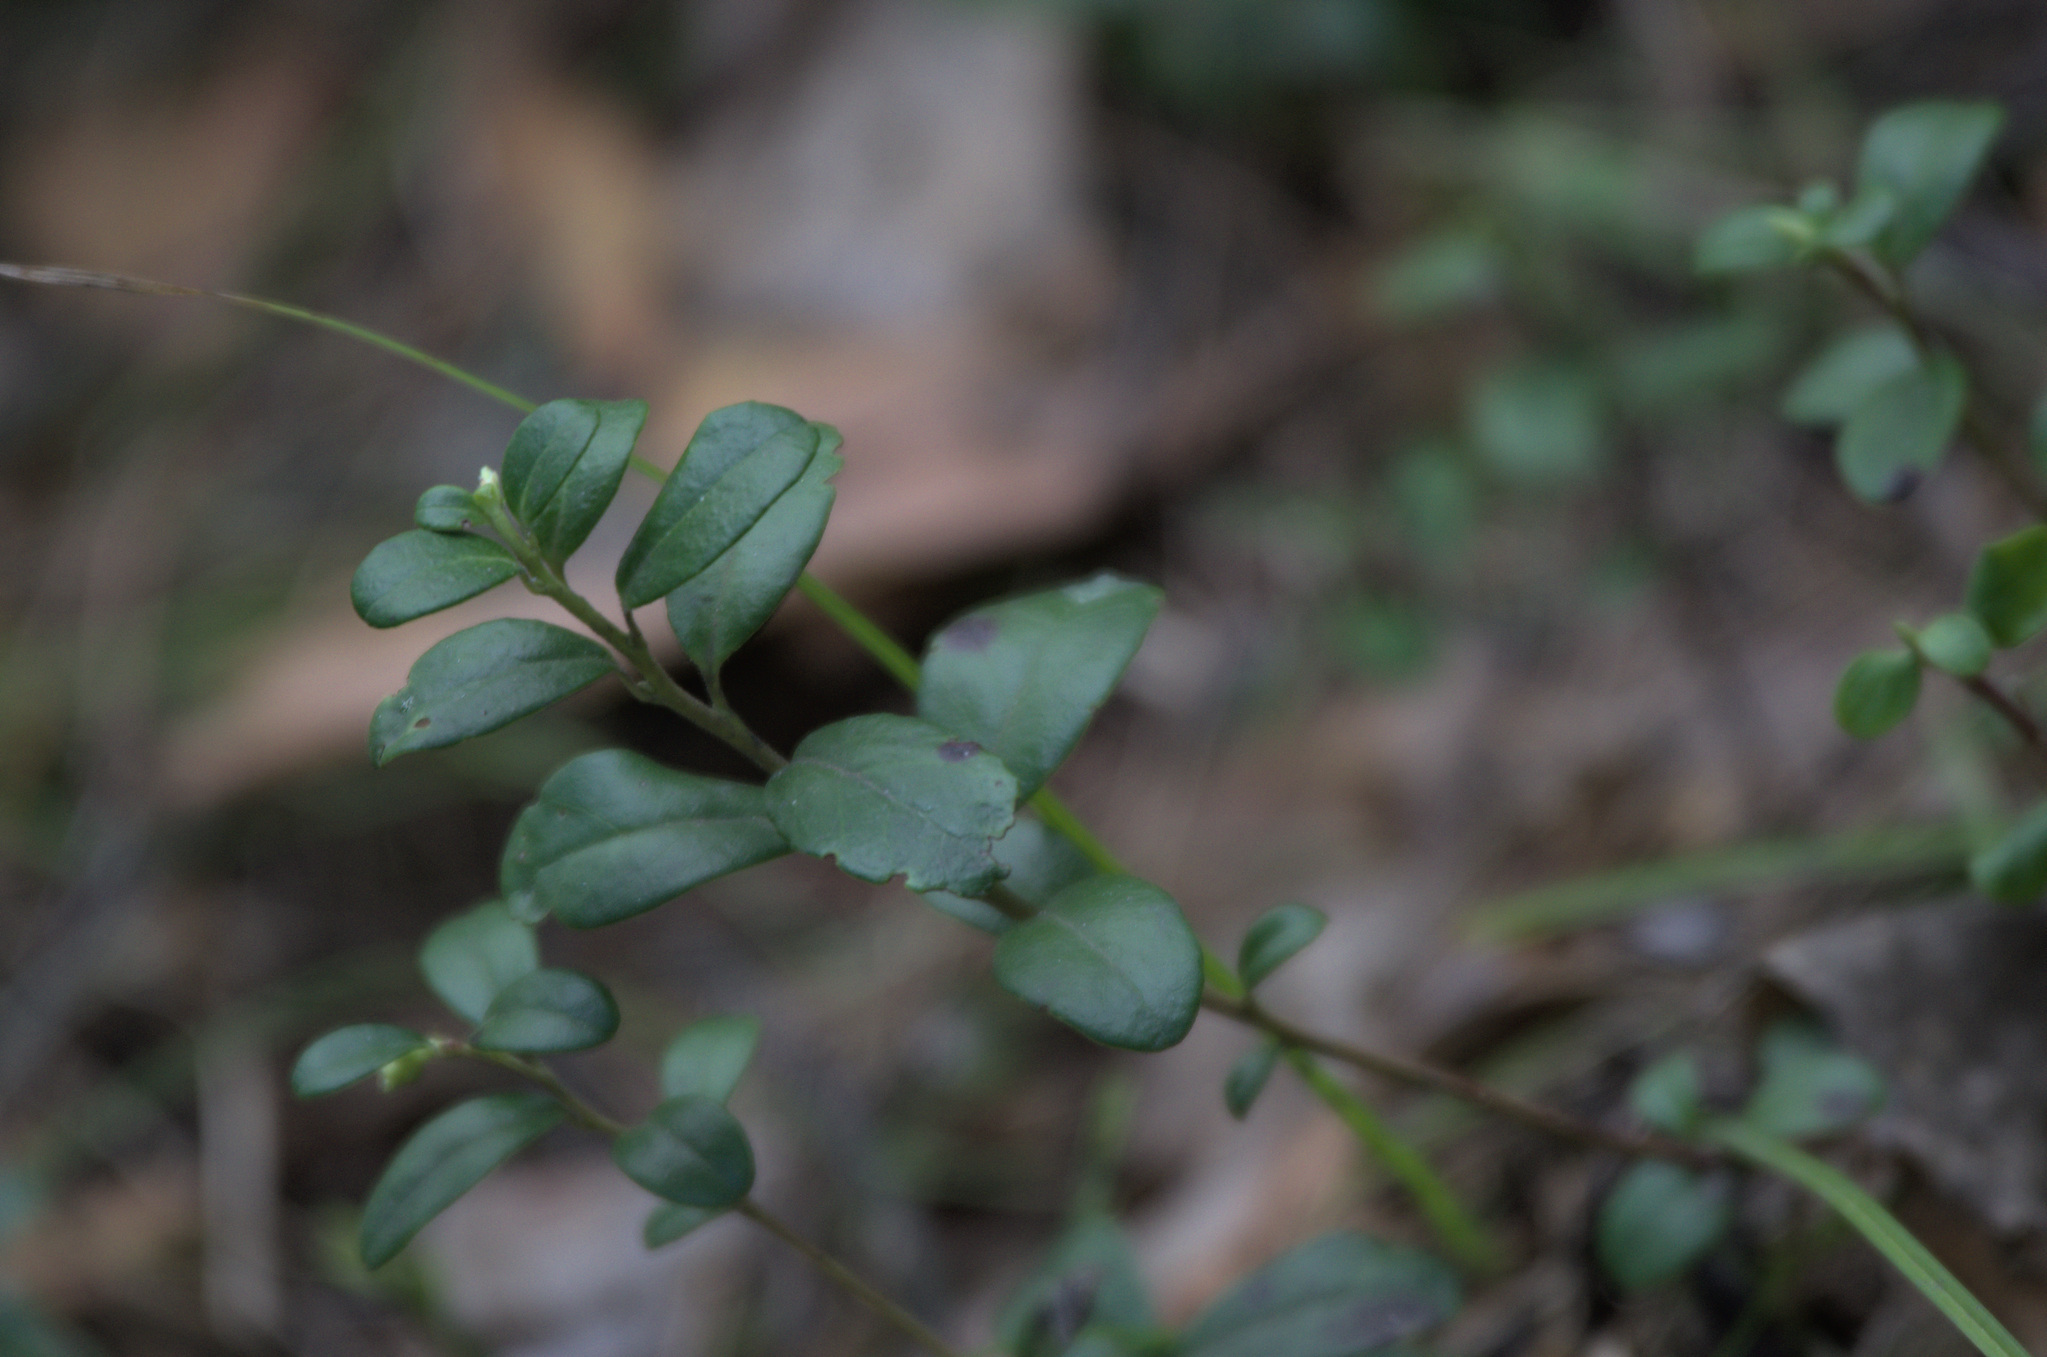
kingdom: Plantae
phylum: Tracheophyta
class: Magnoliopsida
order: Ericales
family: Ericaceae
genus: Vaccinium
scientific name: Vaccinium vitis-idaea
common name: Cowberry
